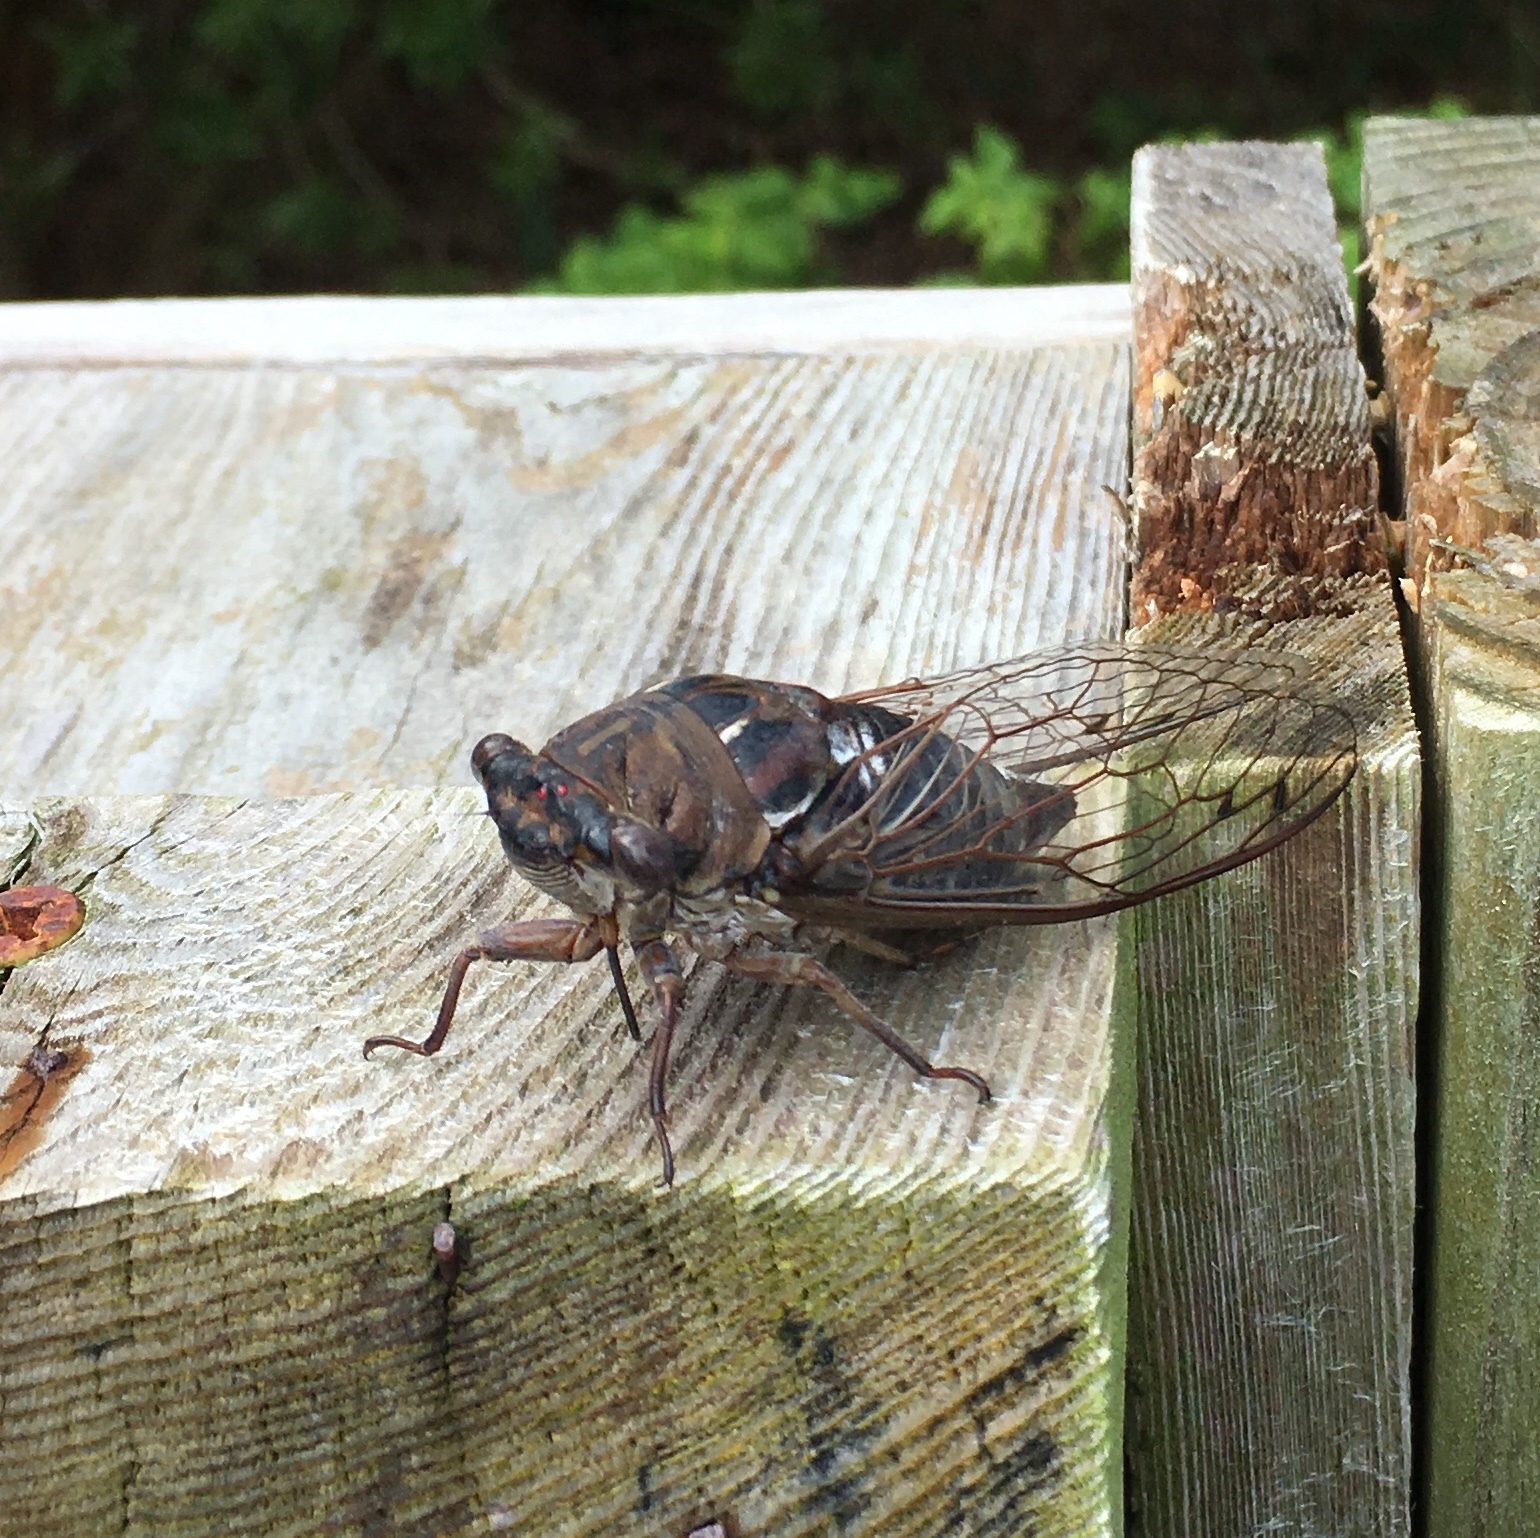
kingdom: Animalia
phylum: Arthropoda
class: Insecta
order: Hemiptera
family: Cicadidae
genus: Megatibicen
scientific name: Megatibicen resonans
